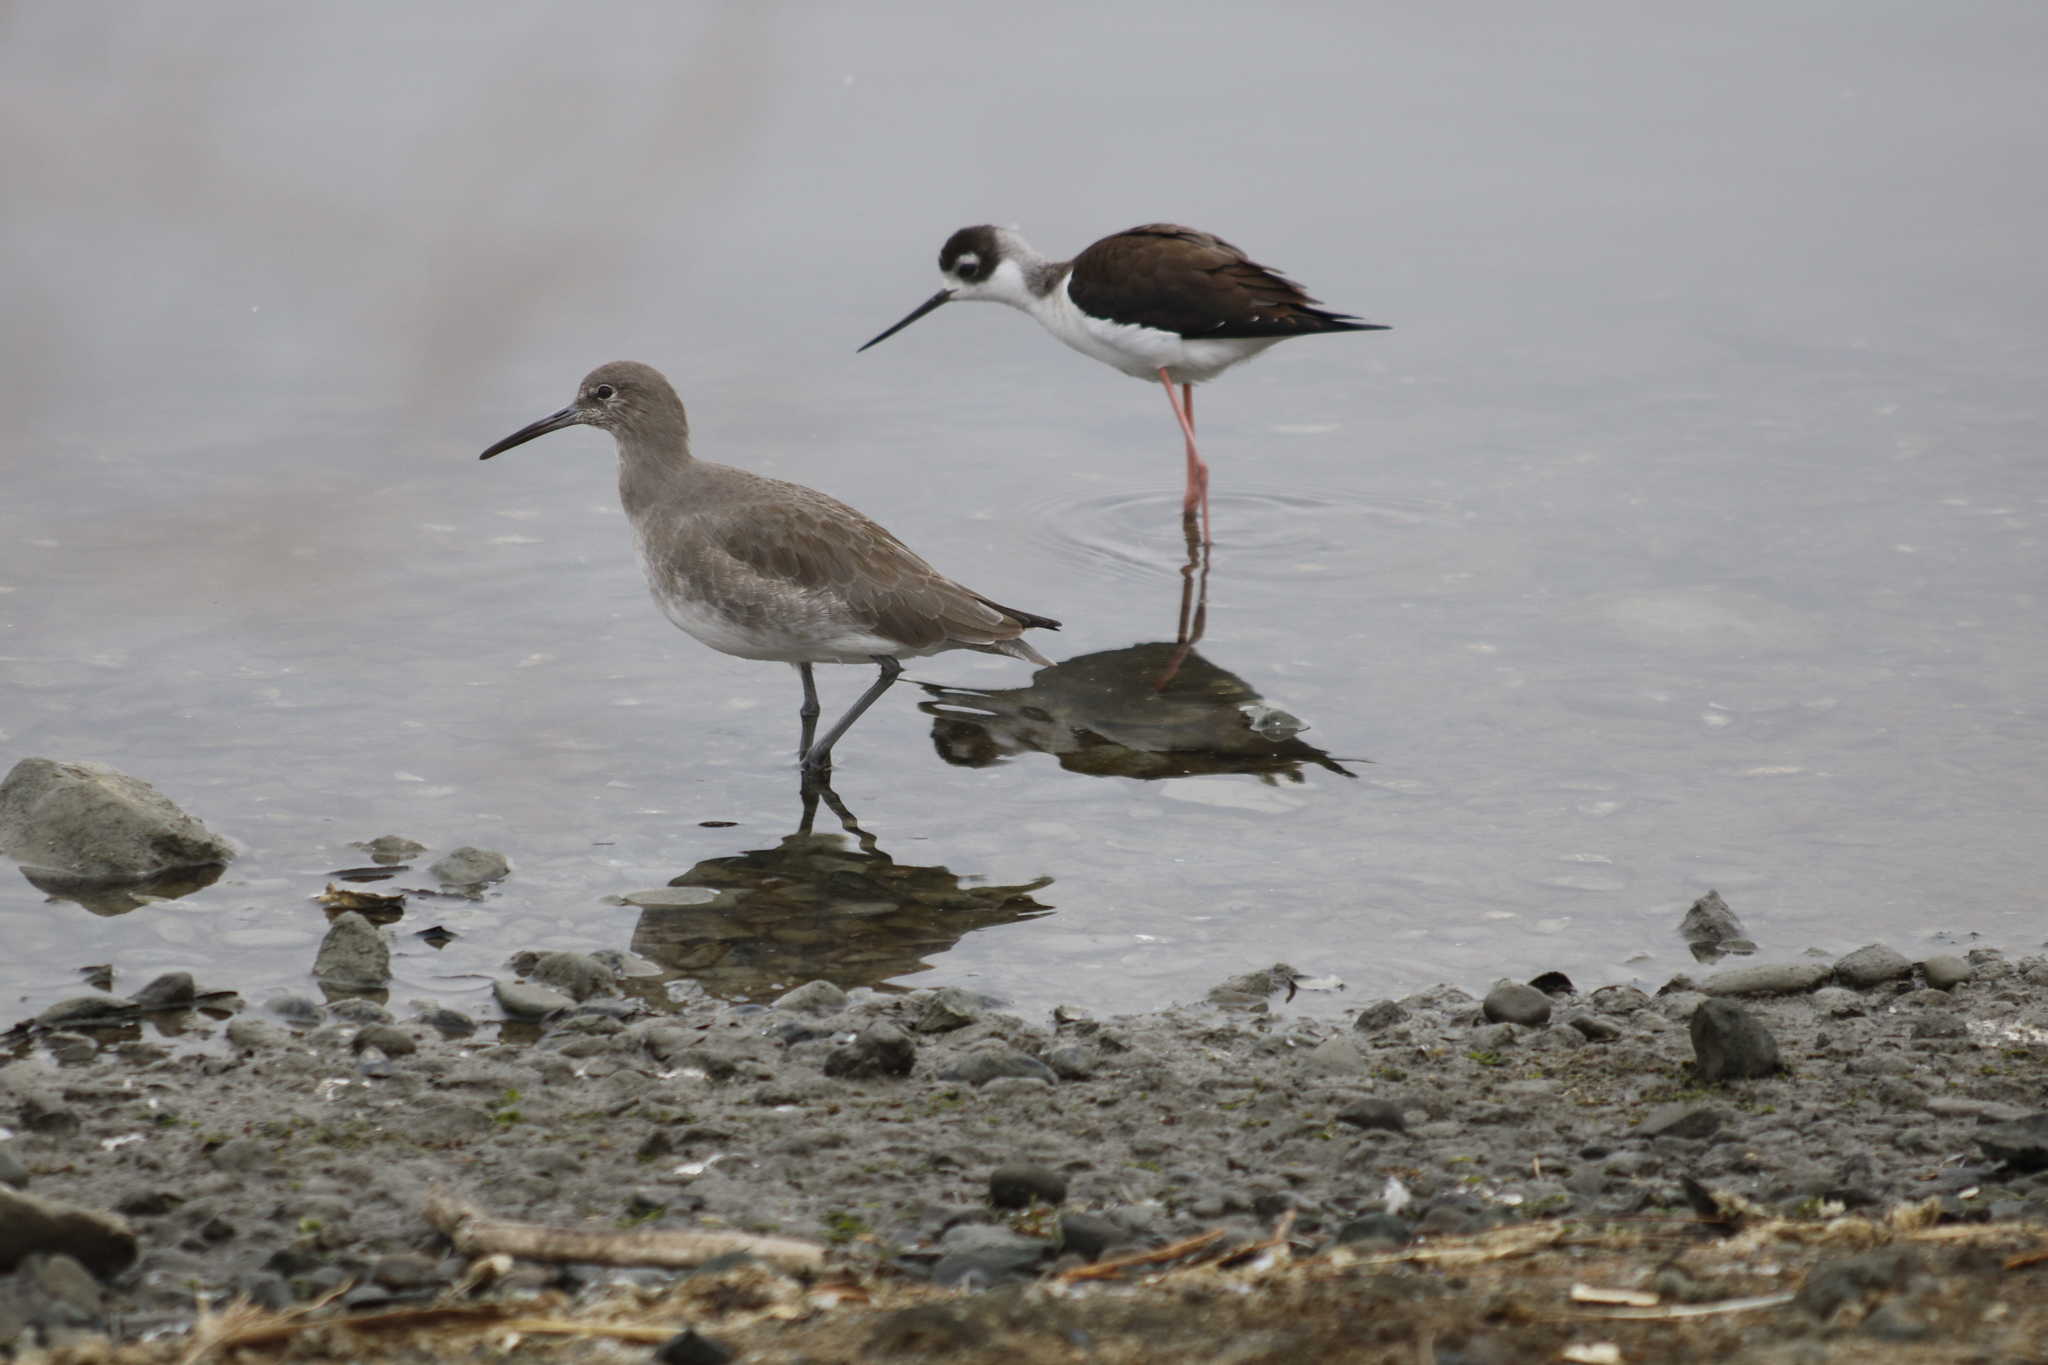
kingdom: Animalia
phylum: Chordata
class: Aves
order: Charadriiformes
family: Recurvirostridae
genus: Himantopus
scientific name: Himantopus mexicanus
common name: Black-necked stilt
